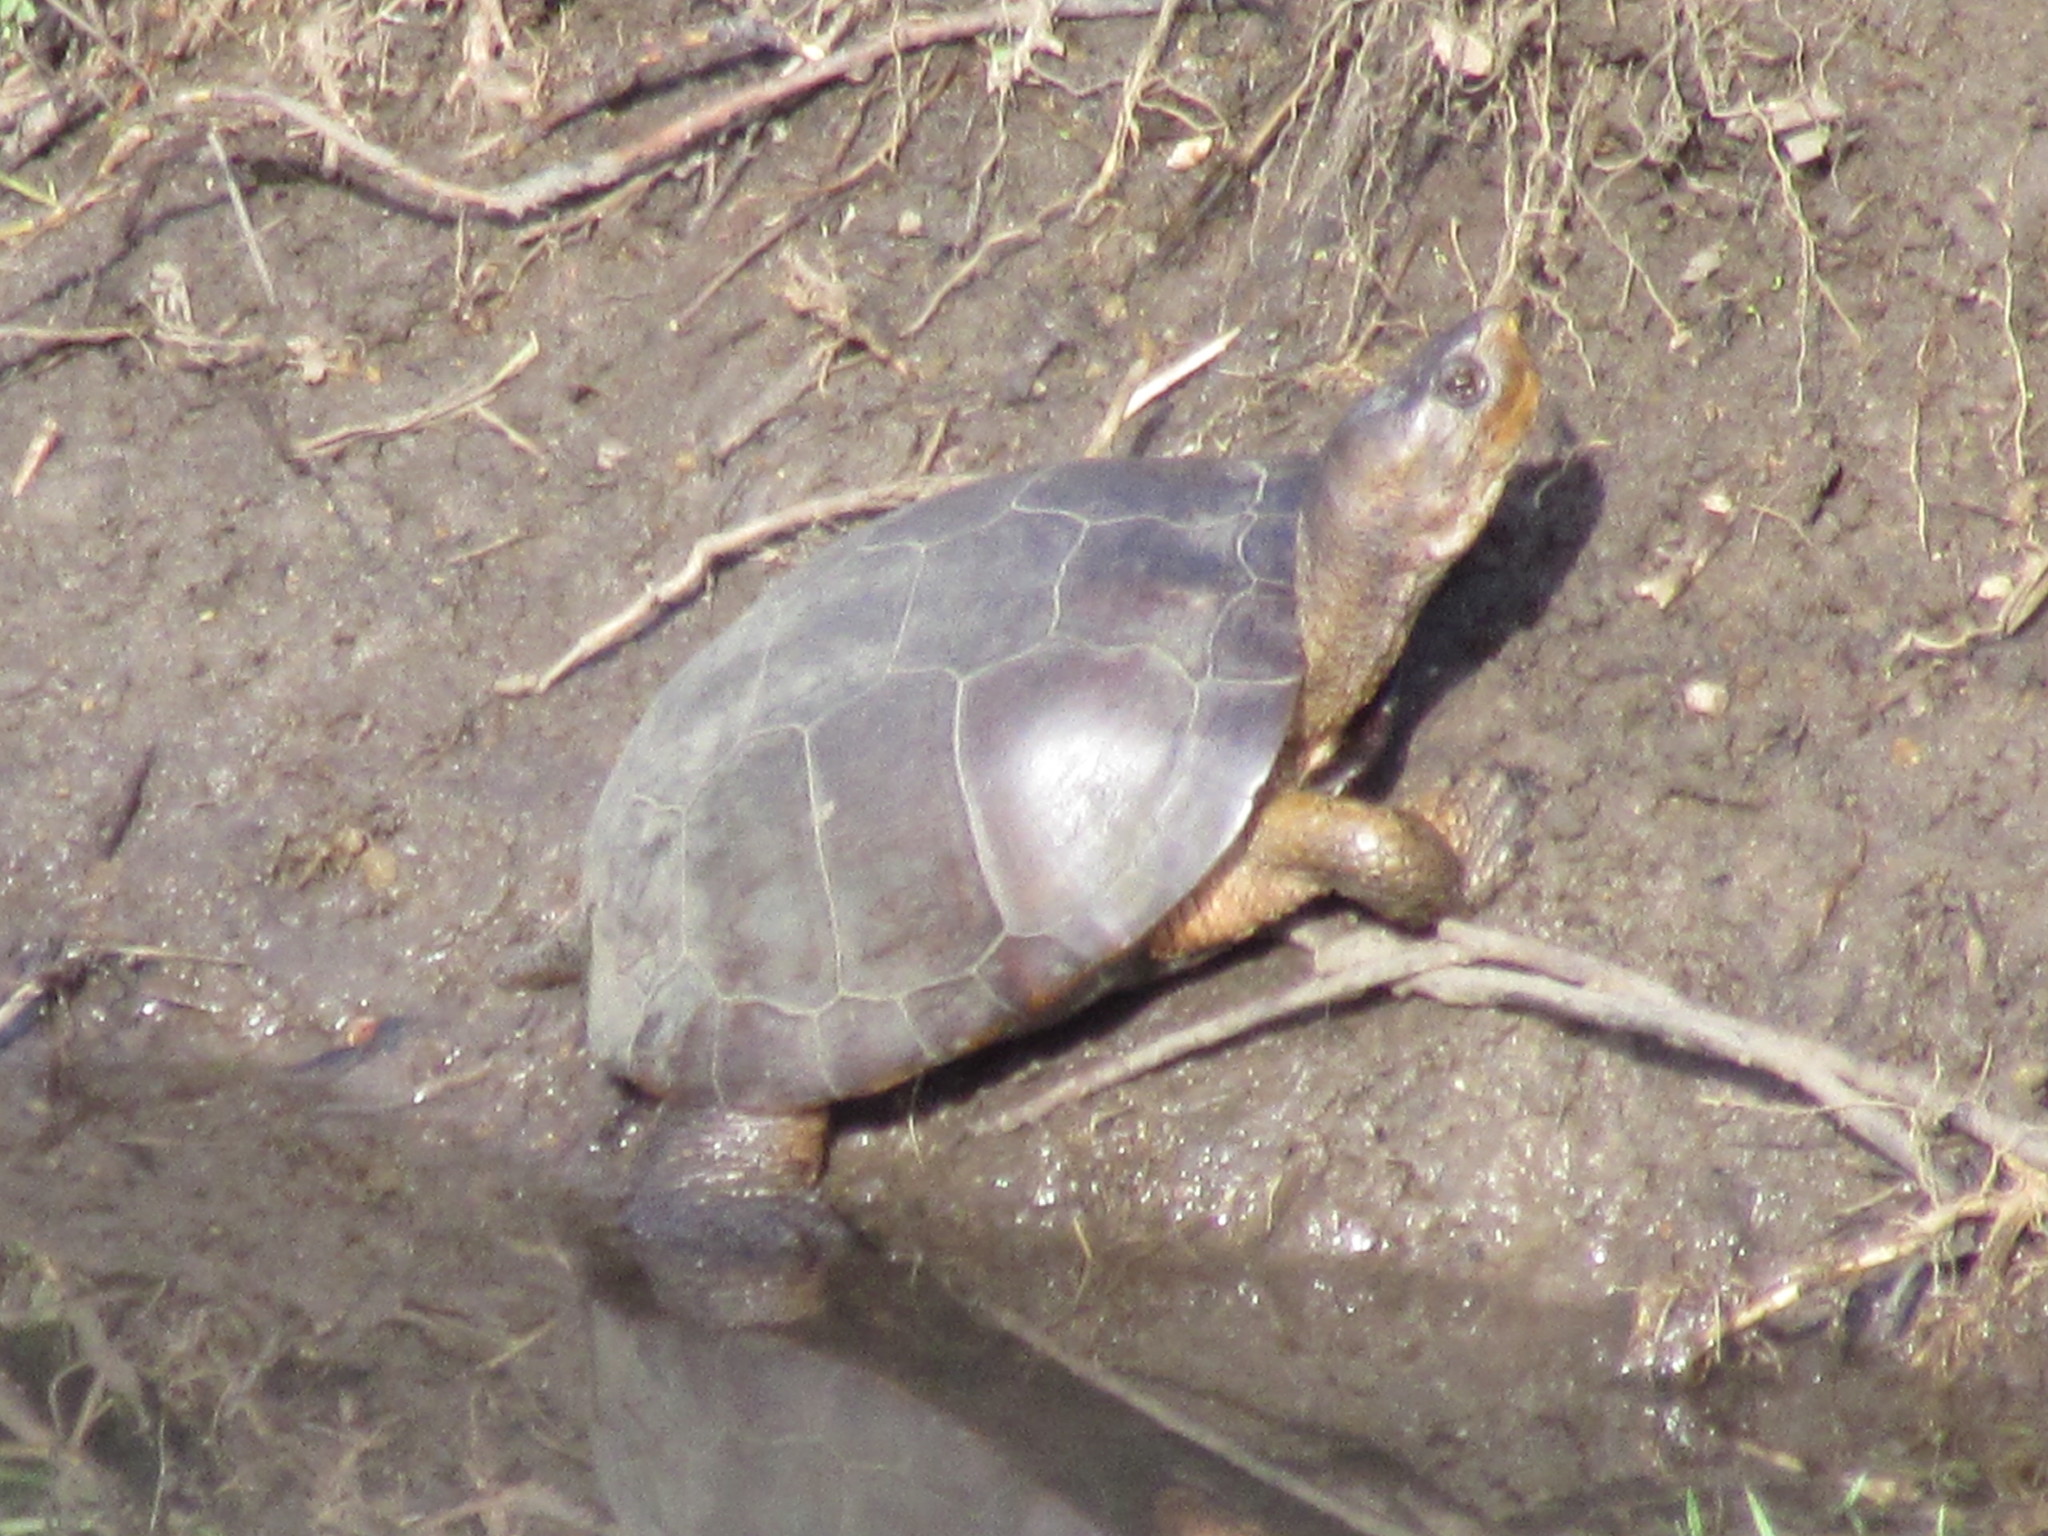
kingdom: Animalia
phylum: Chordata
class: Testudines
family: Emydidae
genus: Actinemys
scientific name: Actinemys marmorata
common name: Western pond turtle
